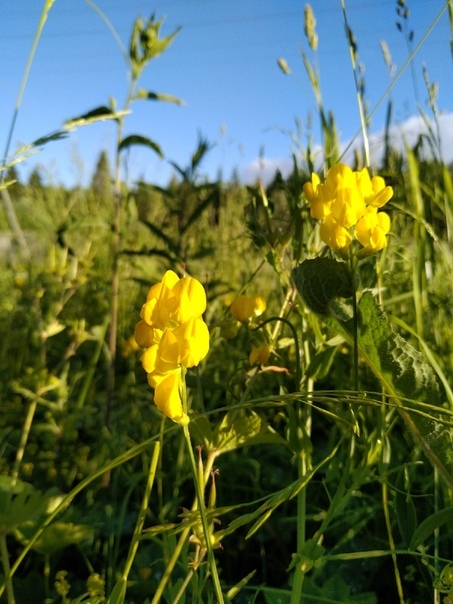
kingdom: Plantae
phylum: Tracheophyta
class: Magnoliopsida
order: Fabales
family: Fabaceae
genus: Lathyrus
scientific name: Lathyrus pratensis
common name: Meadow vetchling
